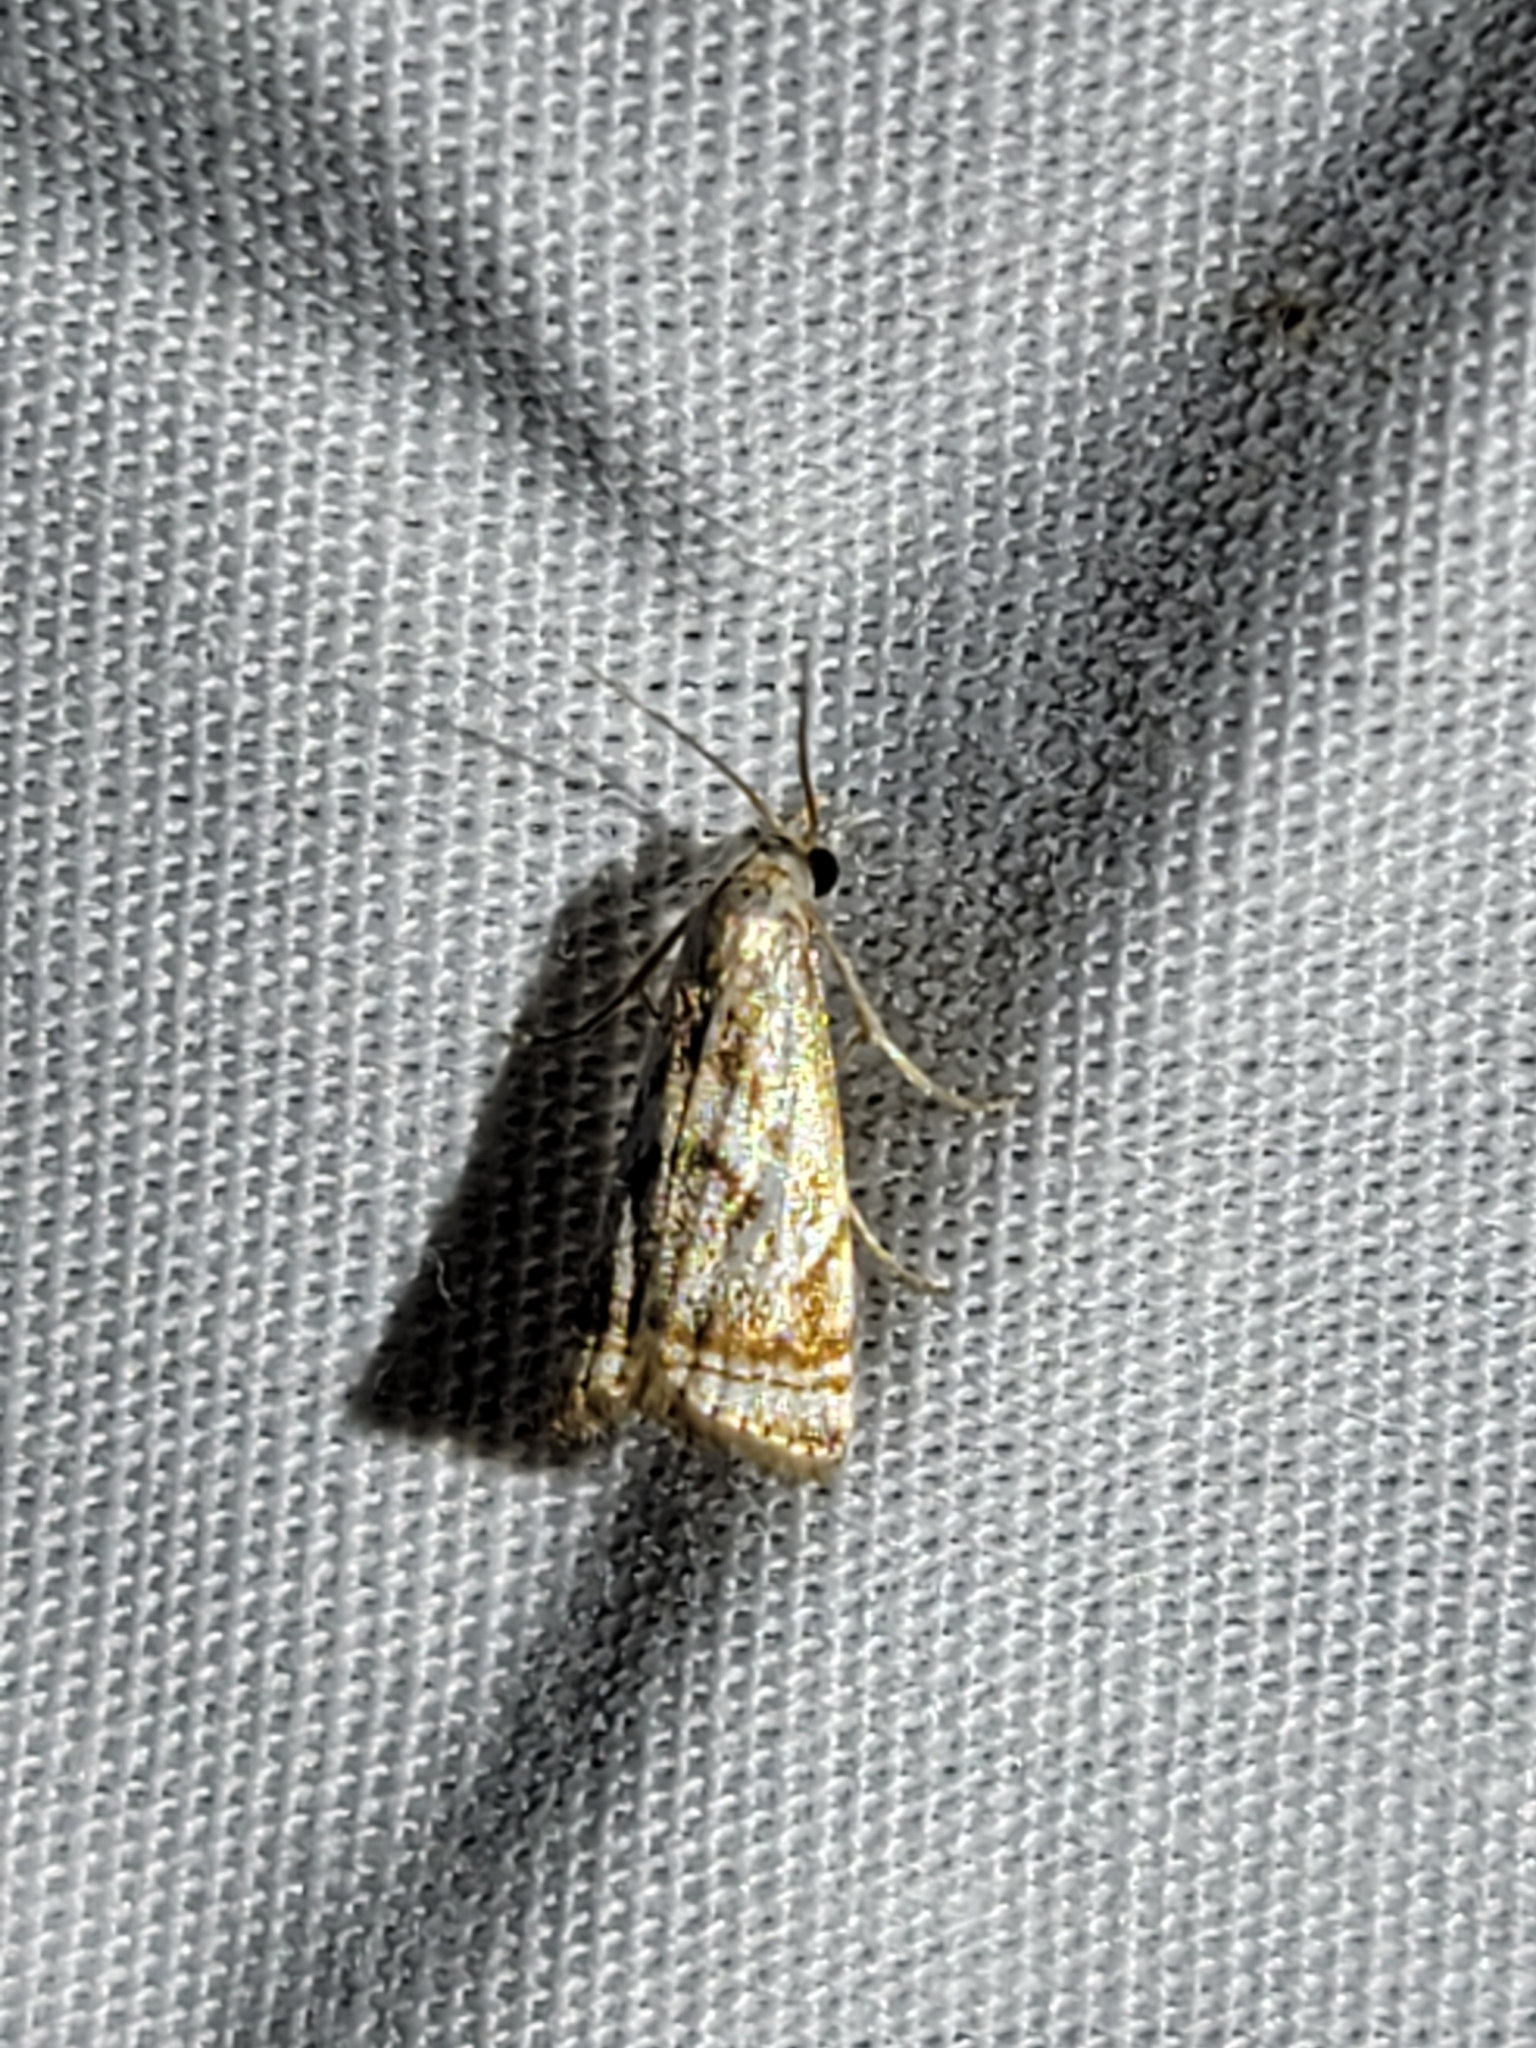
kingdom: Animalia
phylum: Arthropoda
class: Insecta
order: Lepidoptera
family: Crambidae
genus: Microcrambus
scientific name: Microcrambus elegans
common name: Elegant grass-veneer
